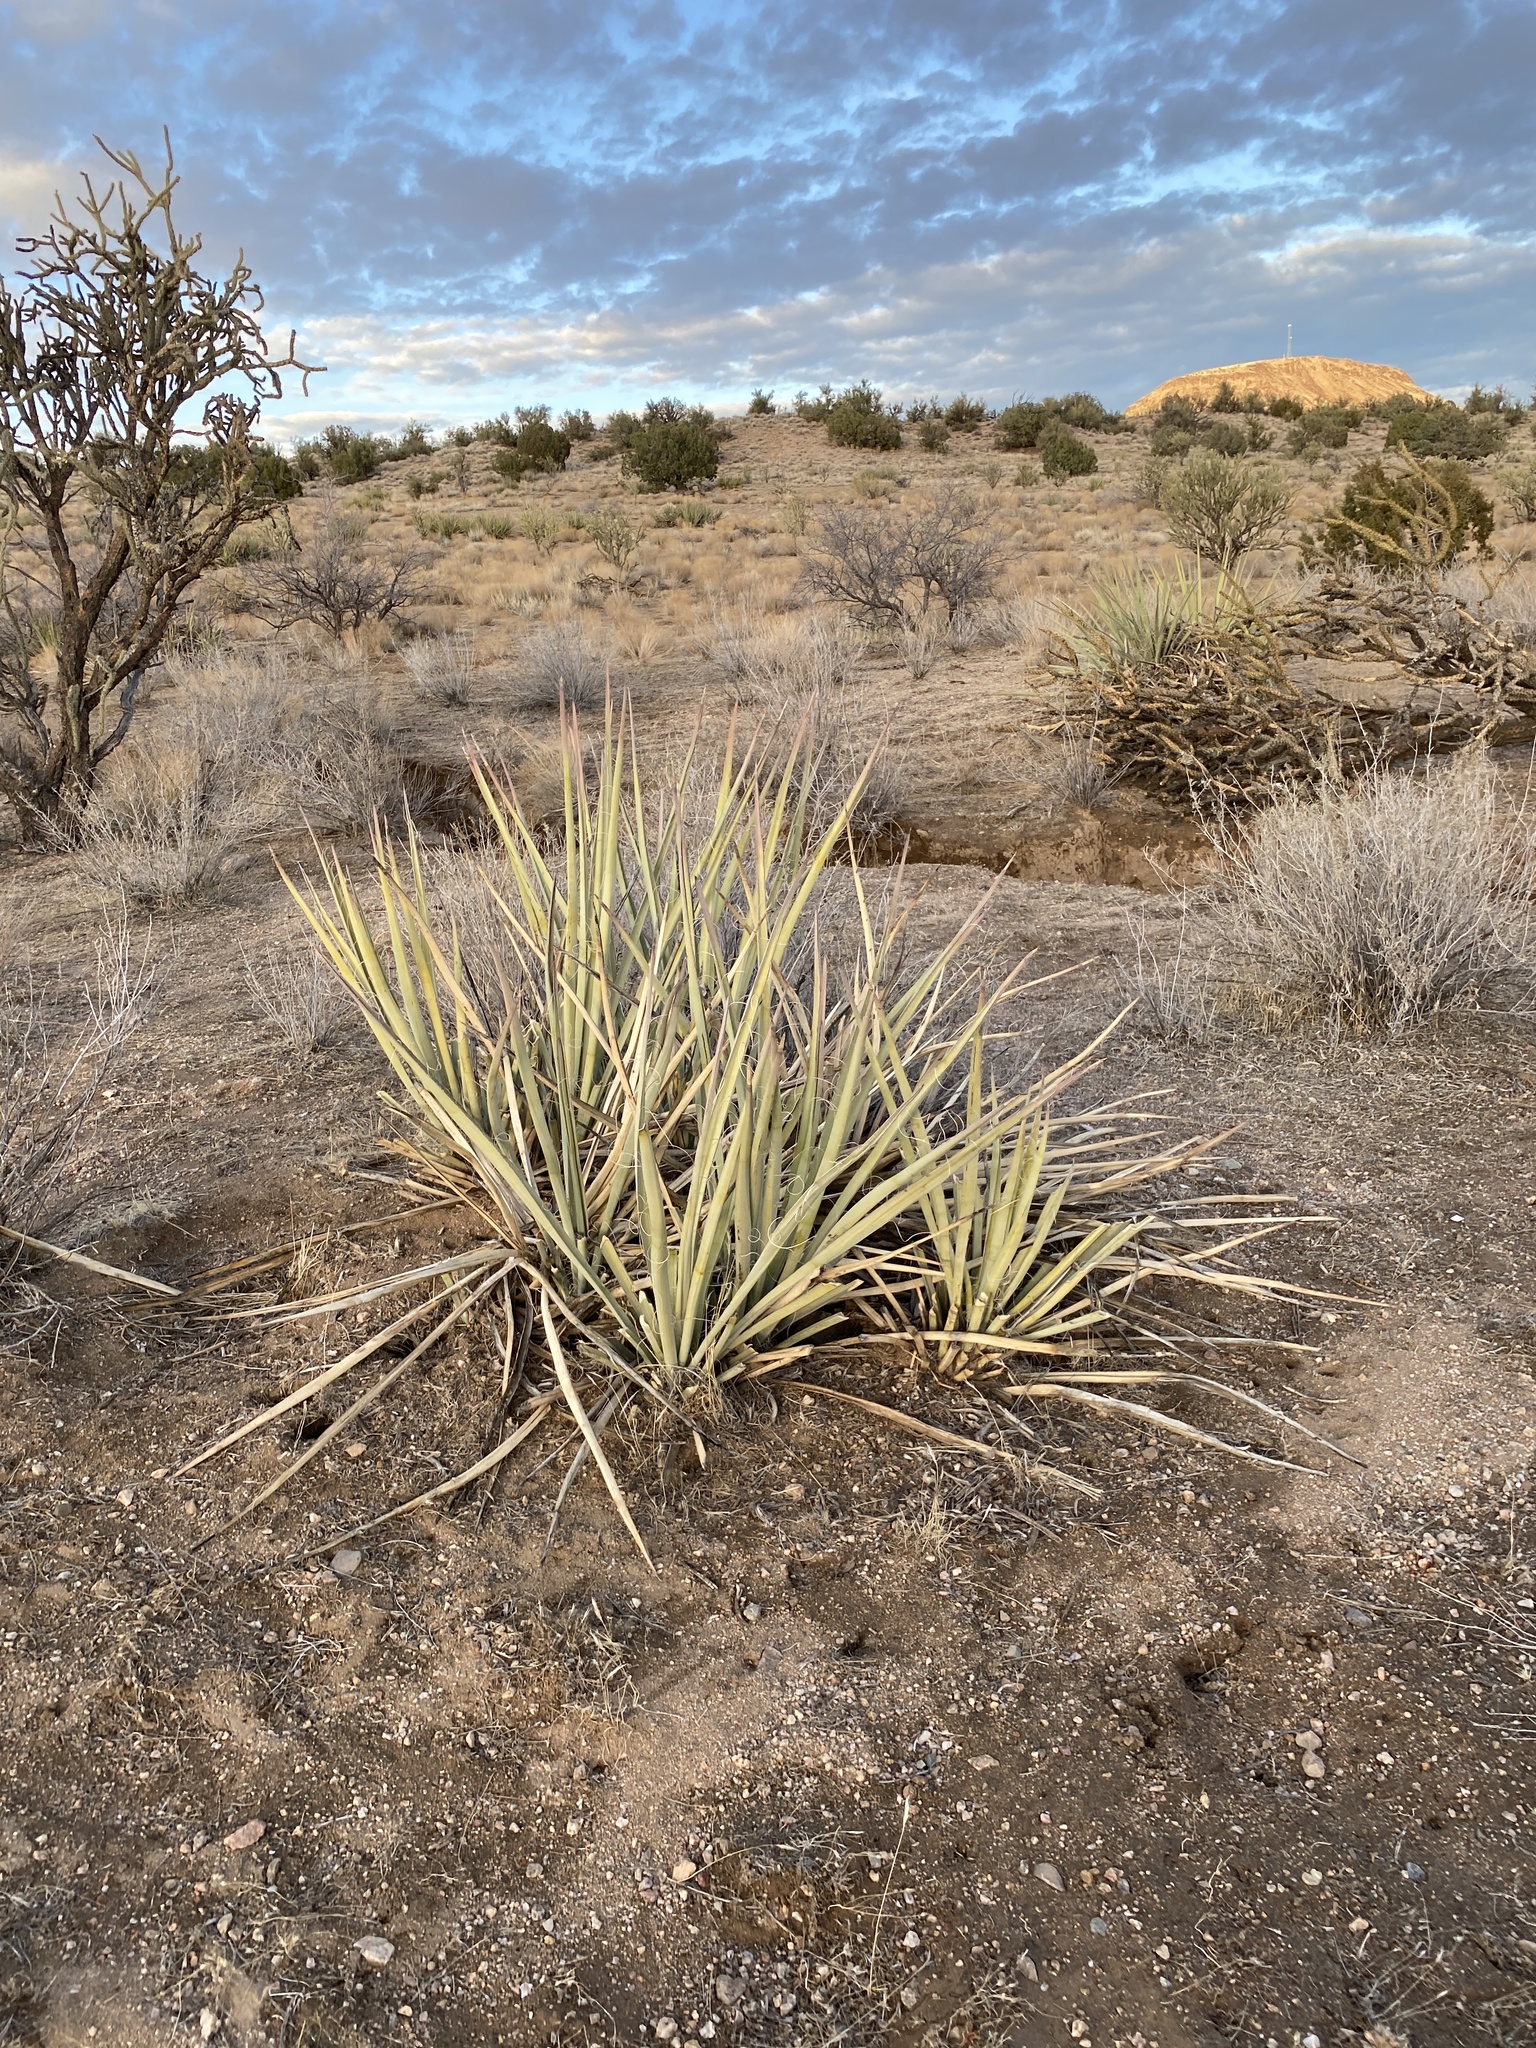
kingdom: Plantae
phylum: Tracheophyta
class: Liliopsida
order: Asparagales
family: Asparagaceae
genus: Yucca
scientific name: Yucca baccata
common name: Banana yucca
